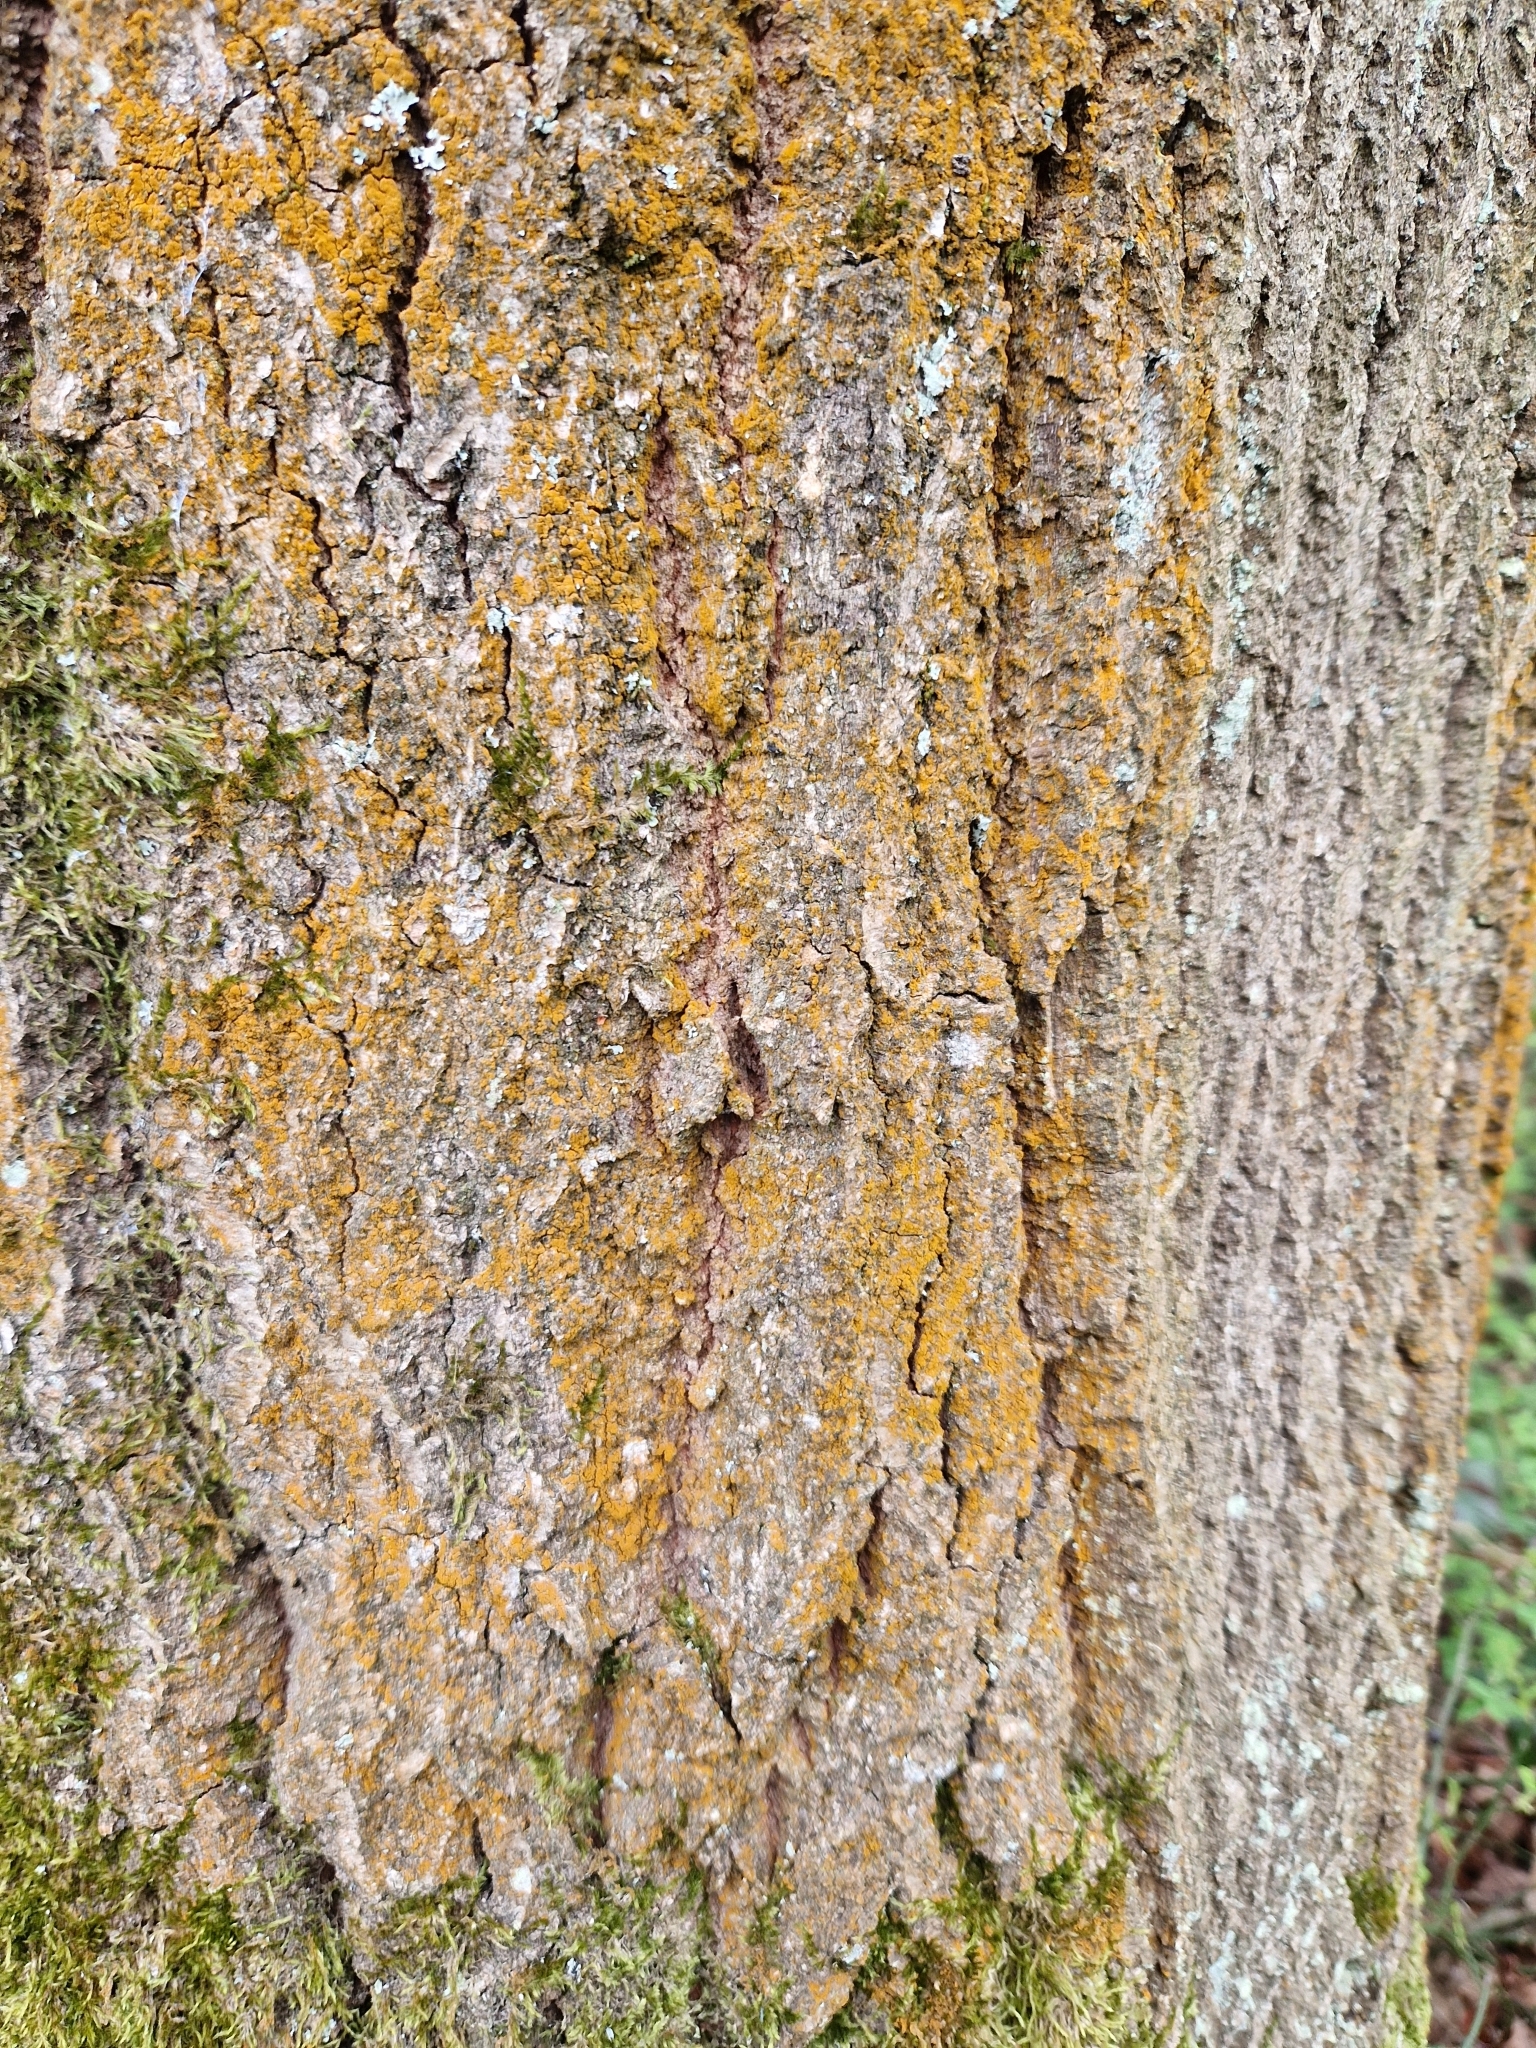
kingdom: Plantae
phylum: Chlorophyta
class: Ulvophyceae
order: Trentepohliales
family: Trentepohliaceae
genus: Trentepohlia
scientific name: Trentepohlia
